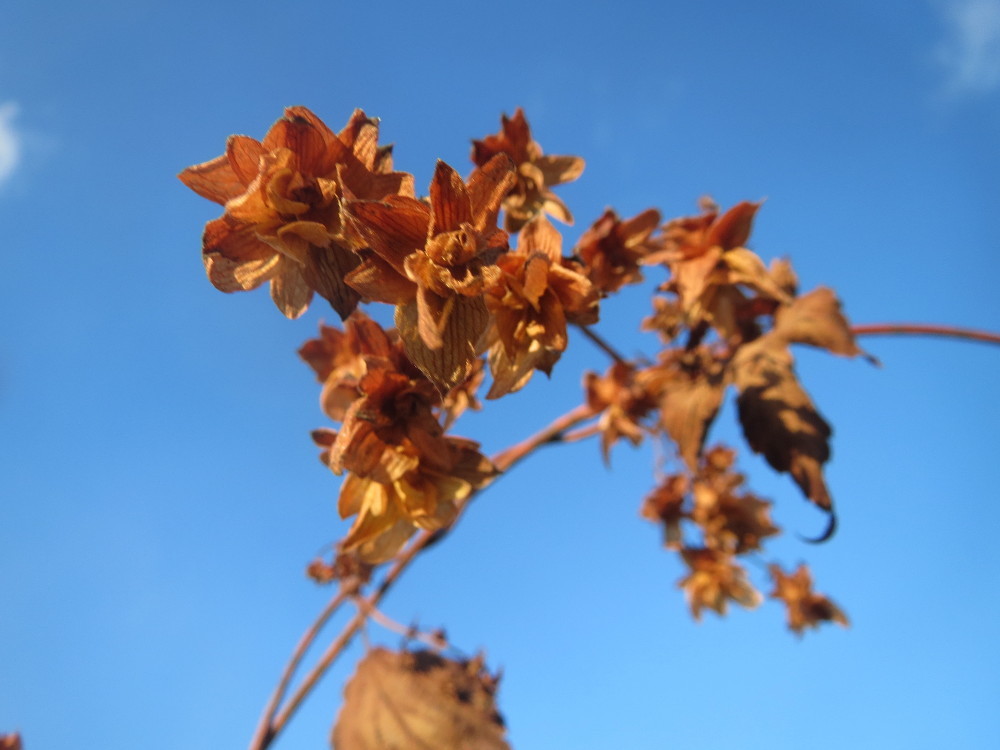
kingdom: Plantae
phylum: Tracheophyta
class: Magnoliopsida
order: Rosales
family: Cannabaceae
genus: Humulus
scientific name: Humulus lupulus
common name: Hop
